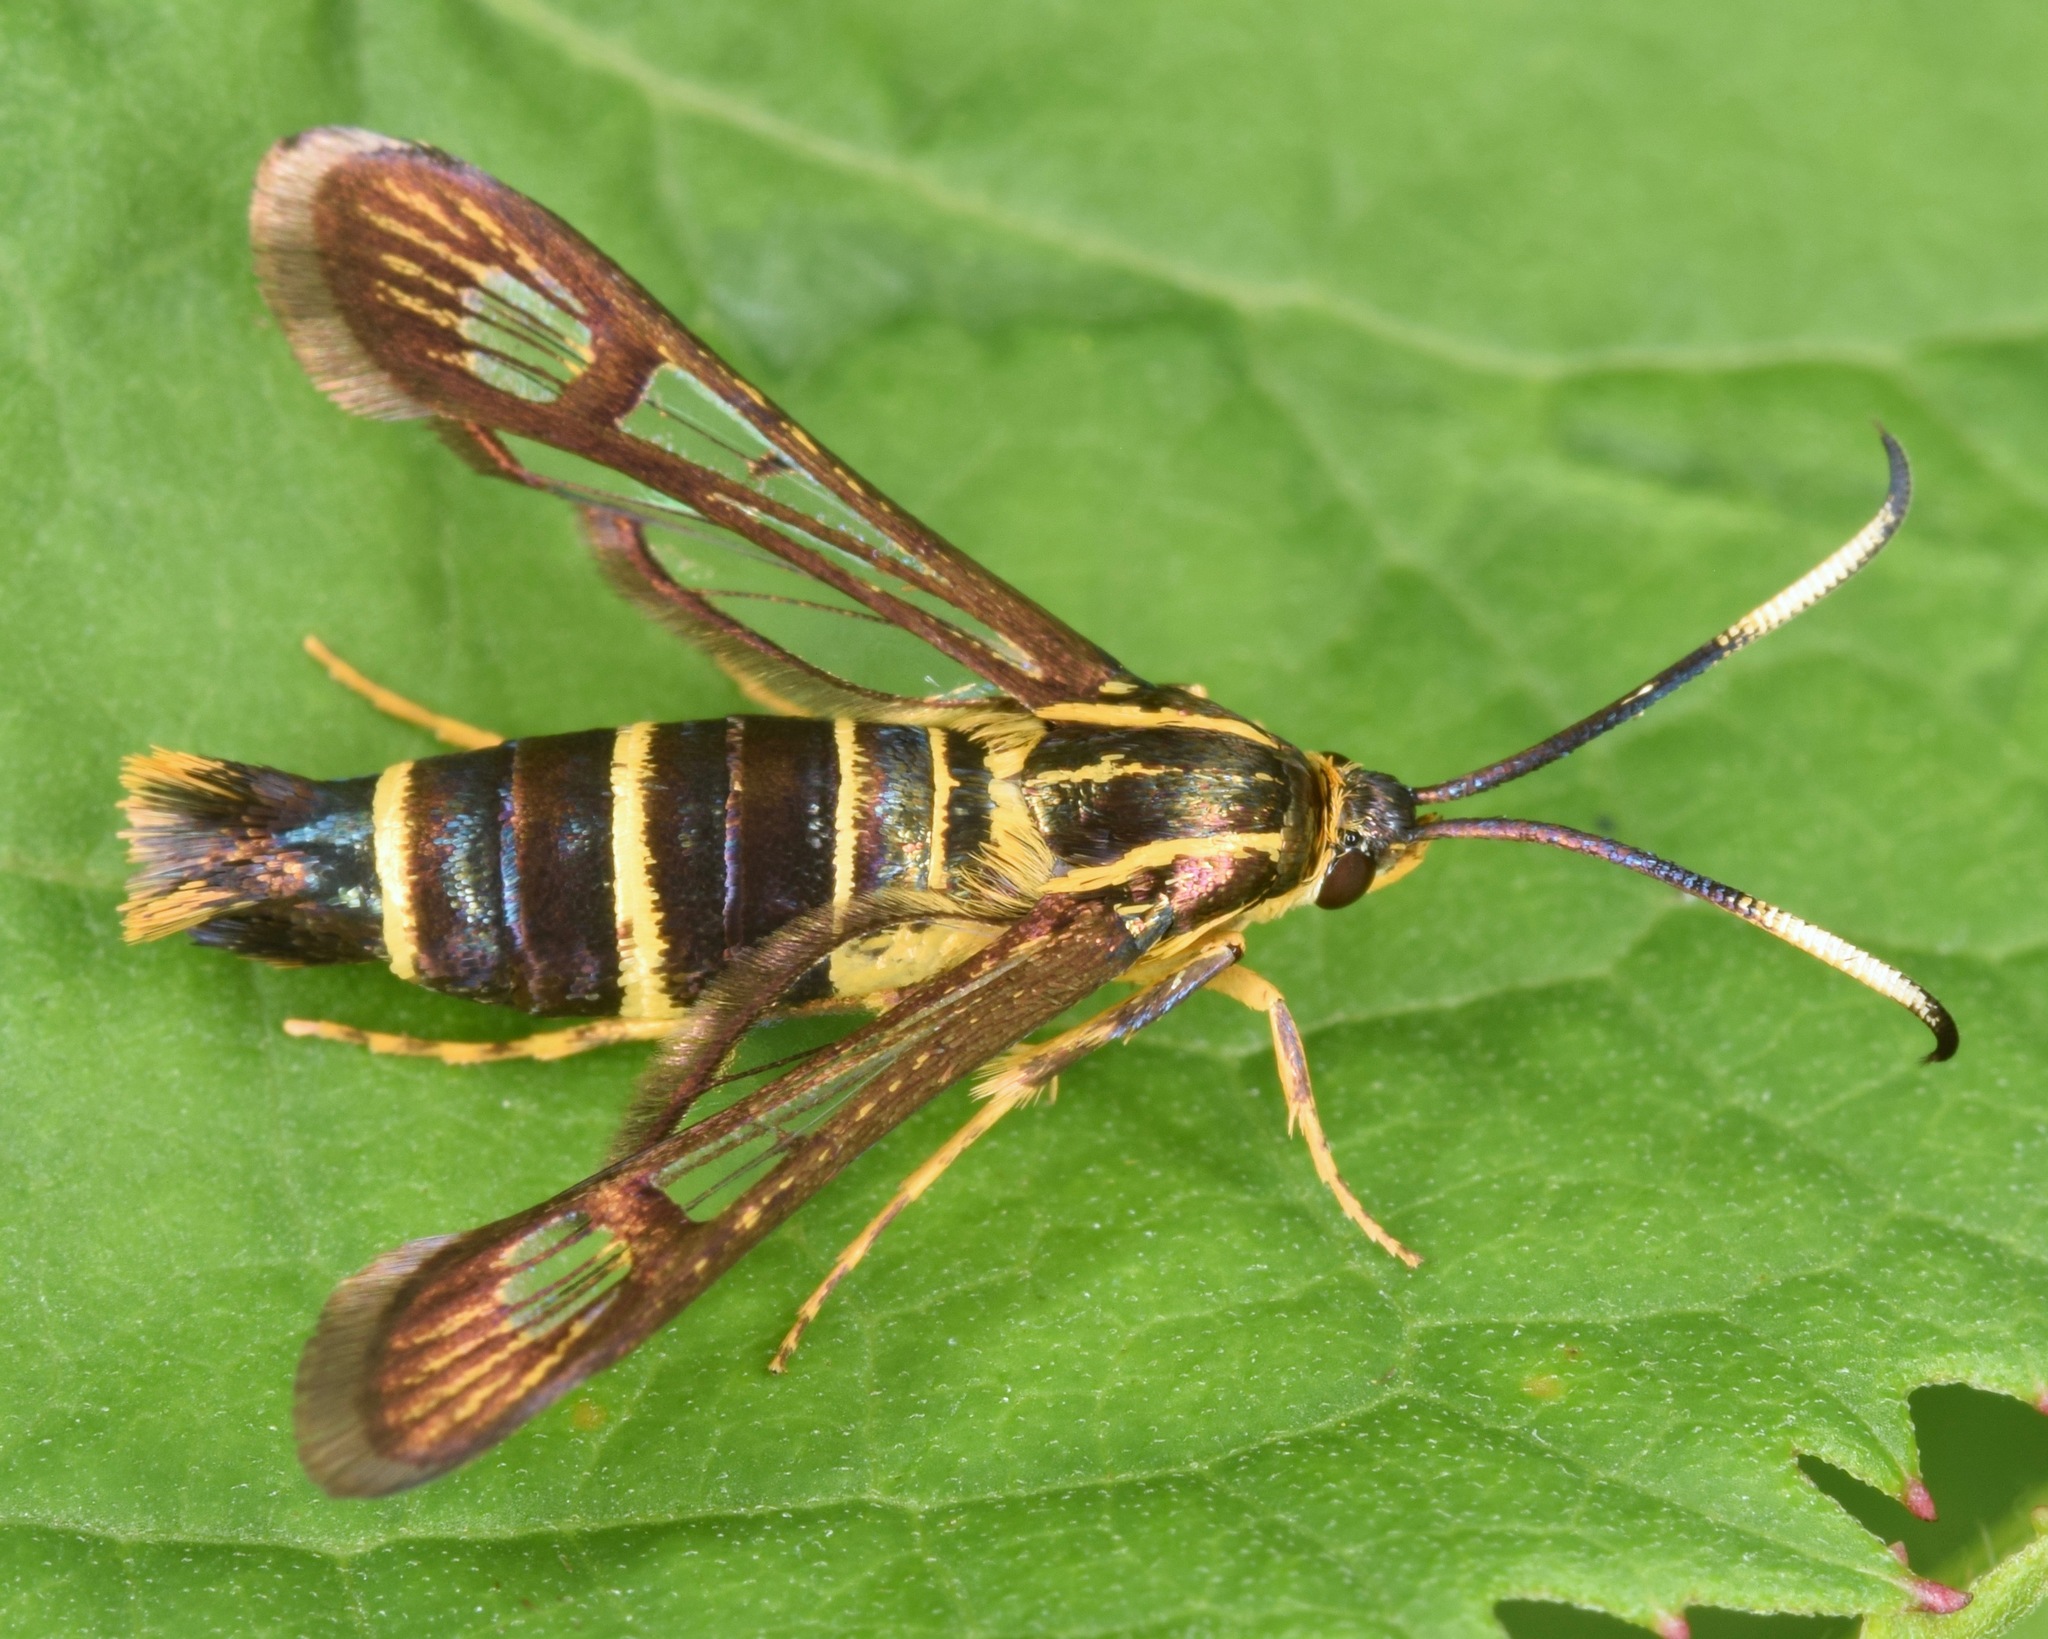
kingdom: Animalia
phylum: Arthropoda
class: Insecta
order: Lepidoptera
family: Sesiidae
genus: Carmenta
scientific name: Carmenta bassiformis
